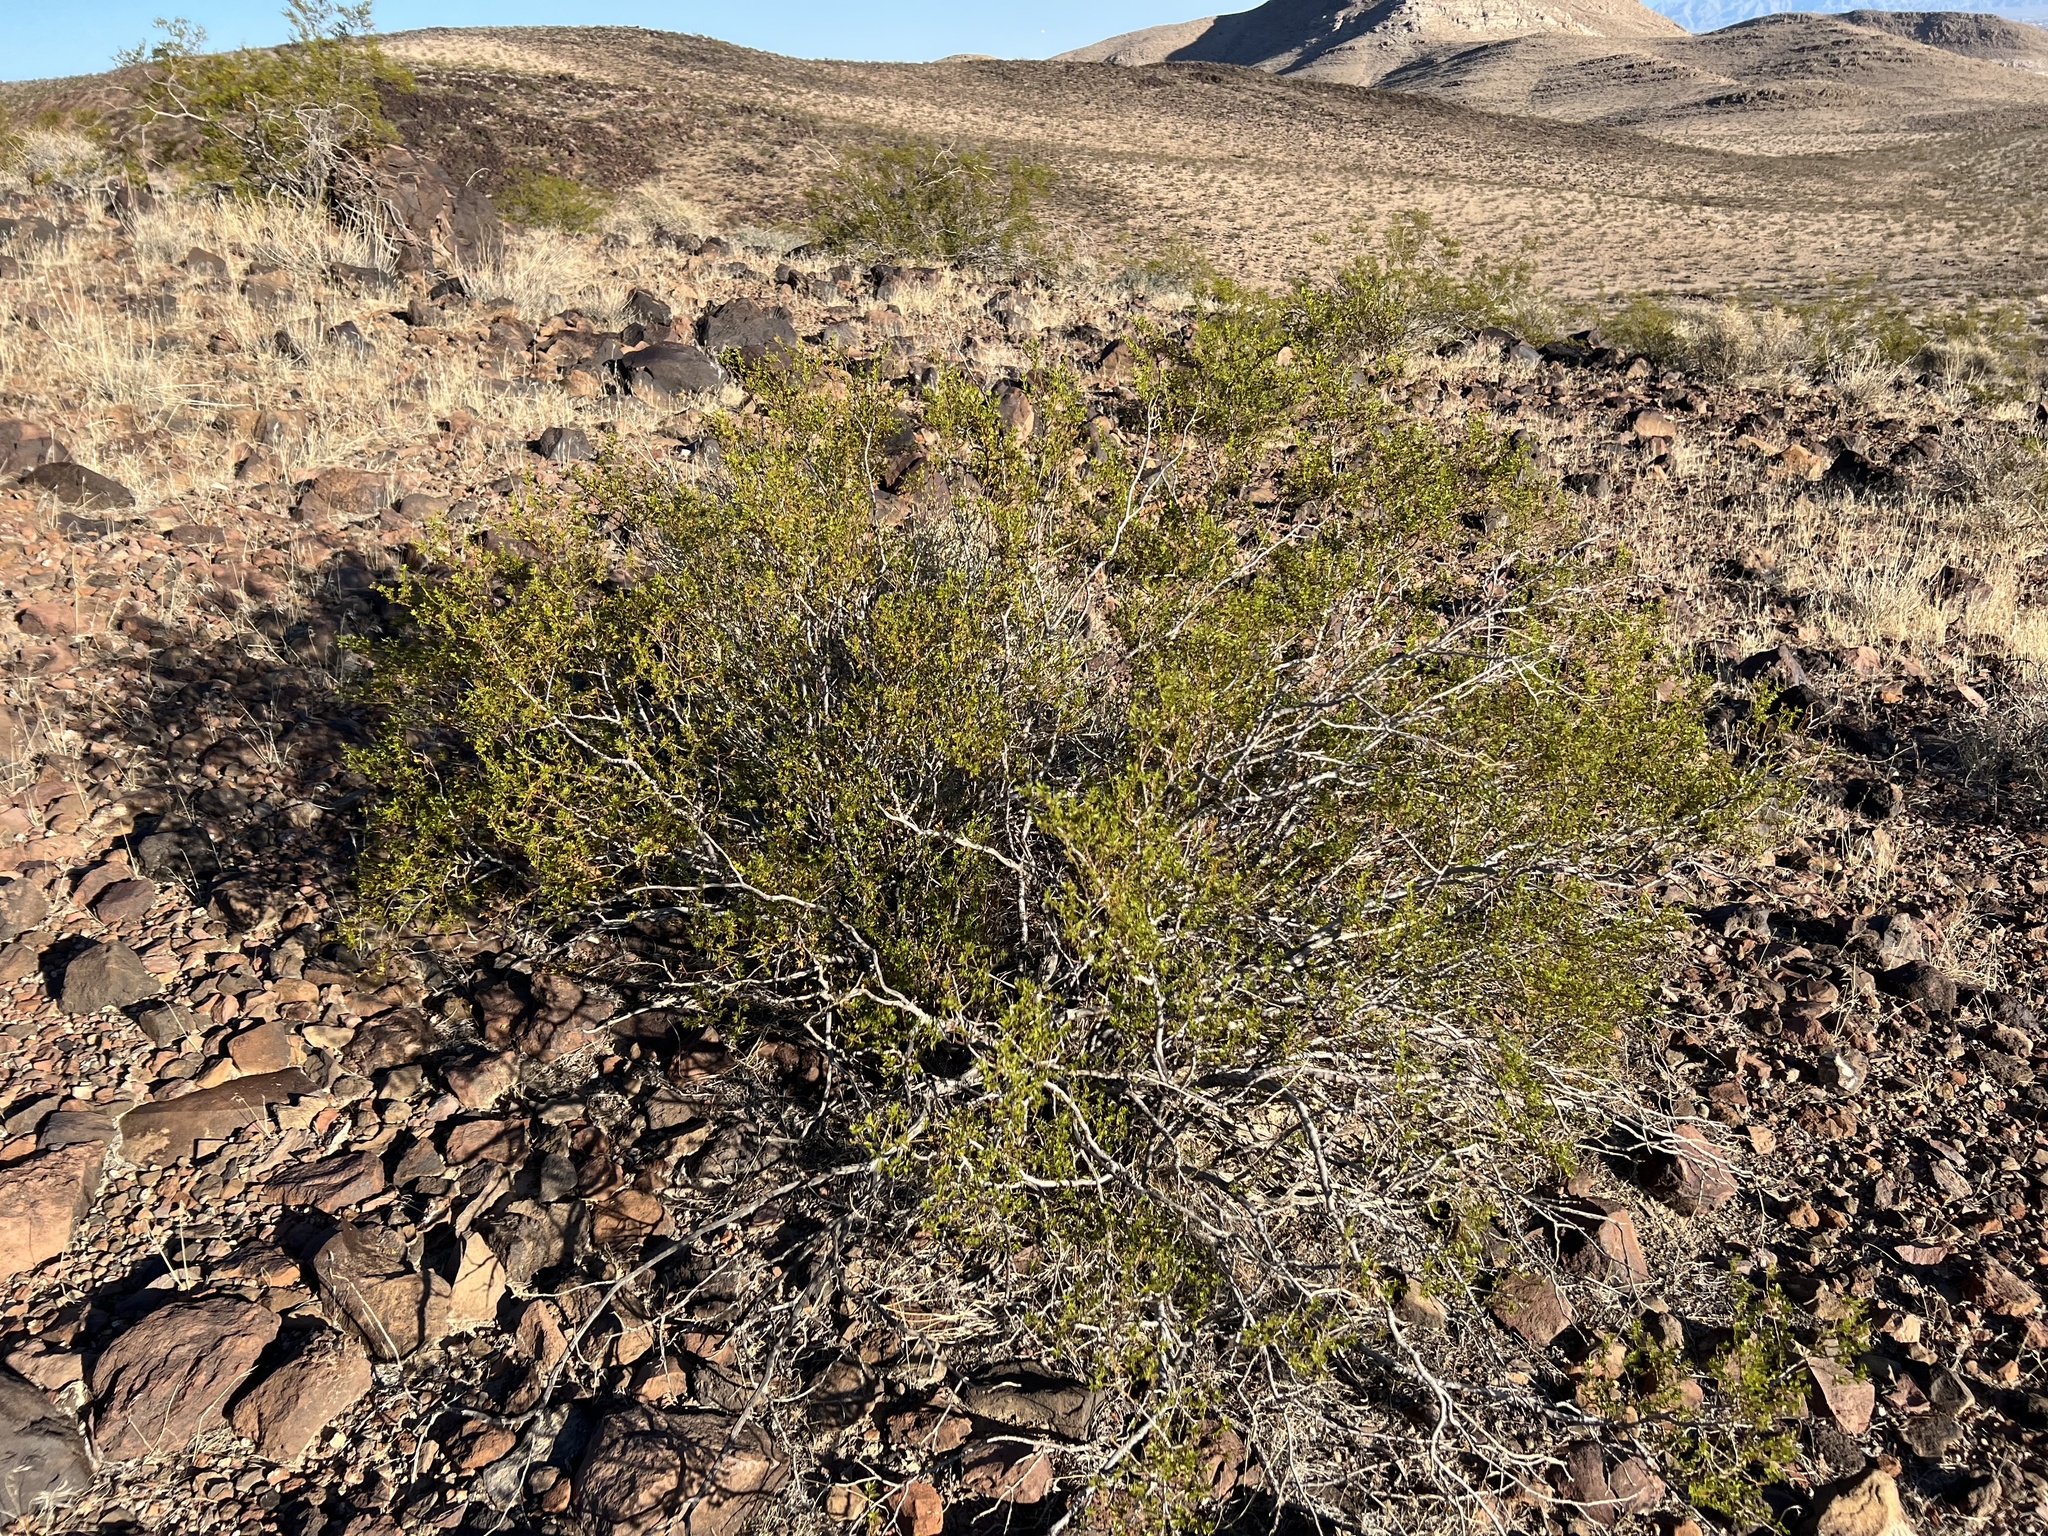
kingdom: Plantae
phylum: Tracheophyta
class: Magnoliopsida
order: Zygophyllales
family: Zygophyllaceae
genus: Larrea
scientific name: Larrea tridentata
